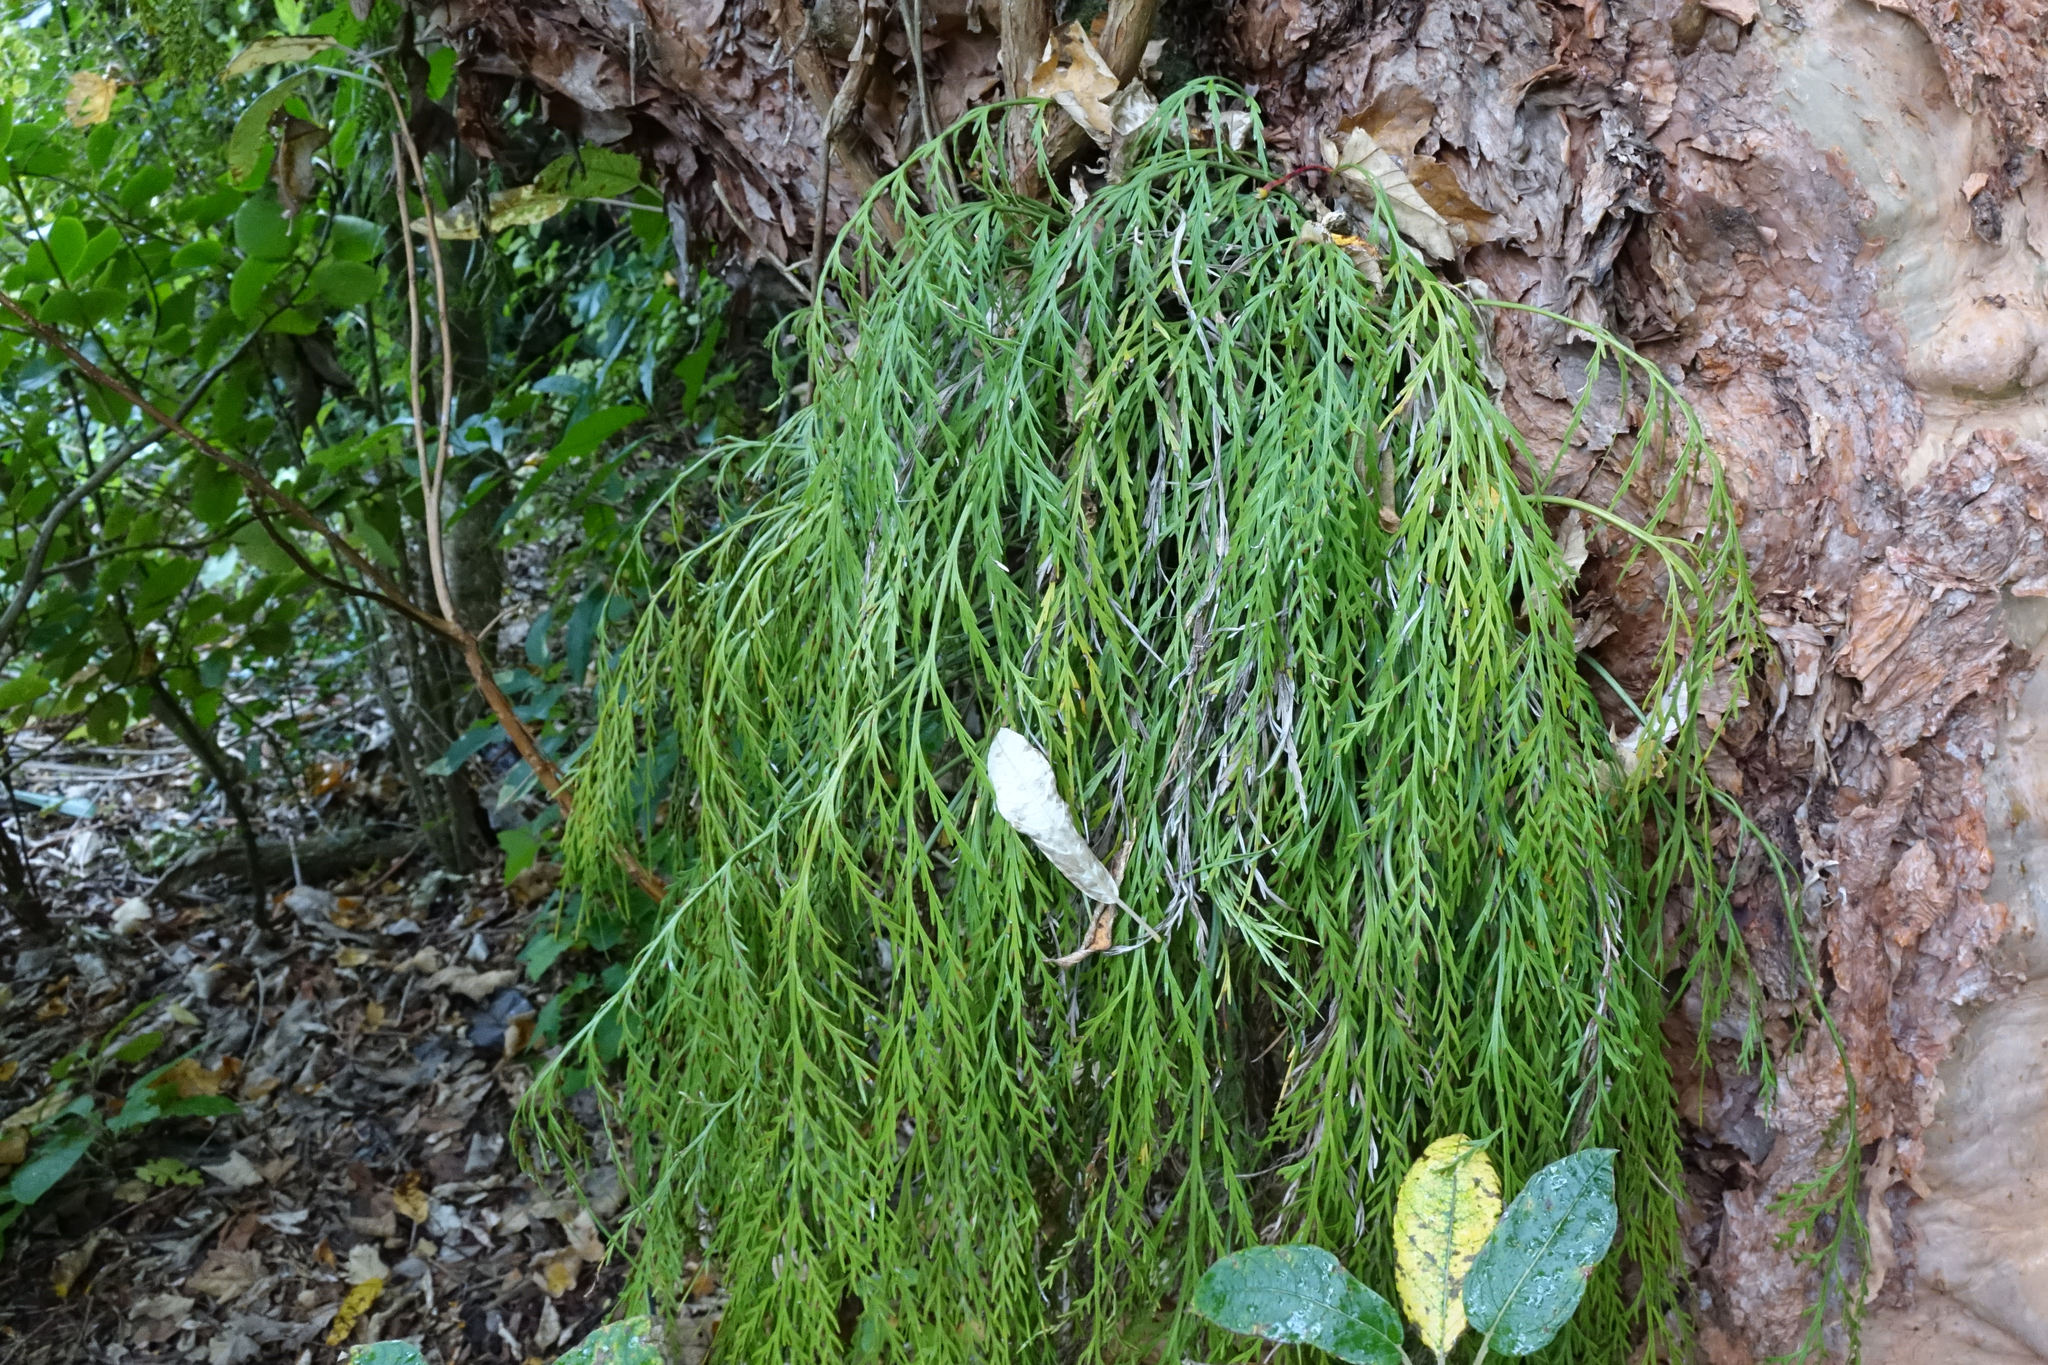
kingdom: Plantae
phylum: Tracheophyta
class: Polypodiopsida
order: Polypodiales
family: Aspleniaceae
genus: Asplenium
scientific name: Asplenium flaccidum
